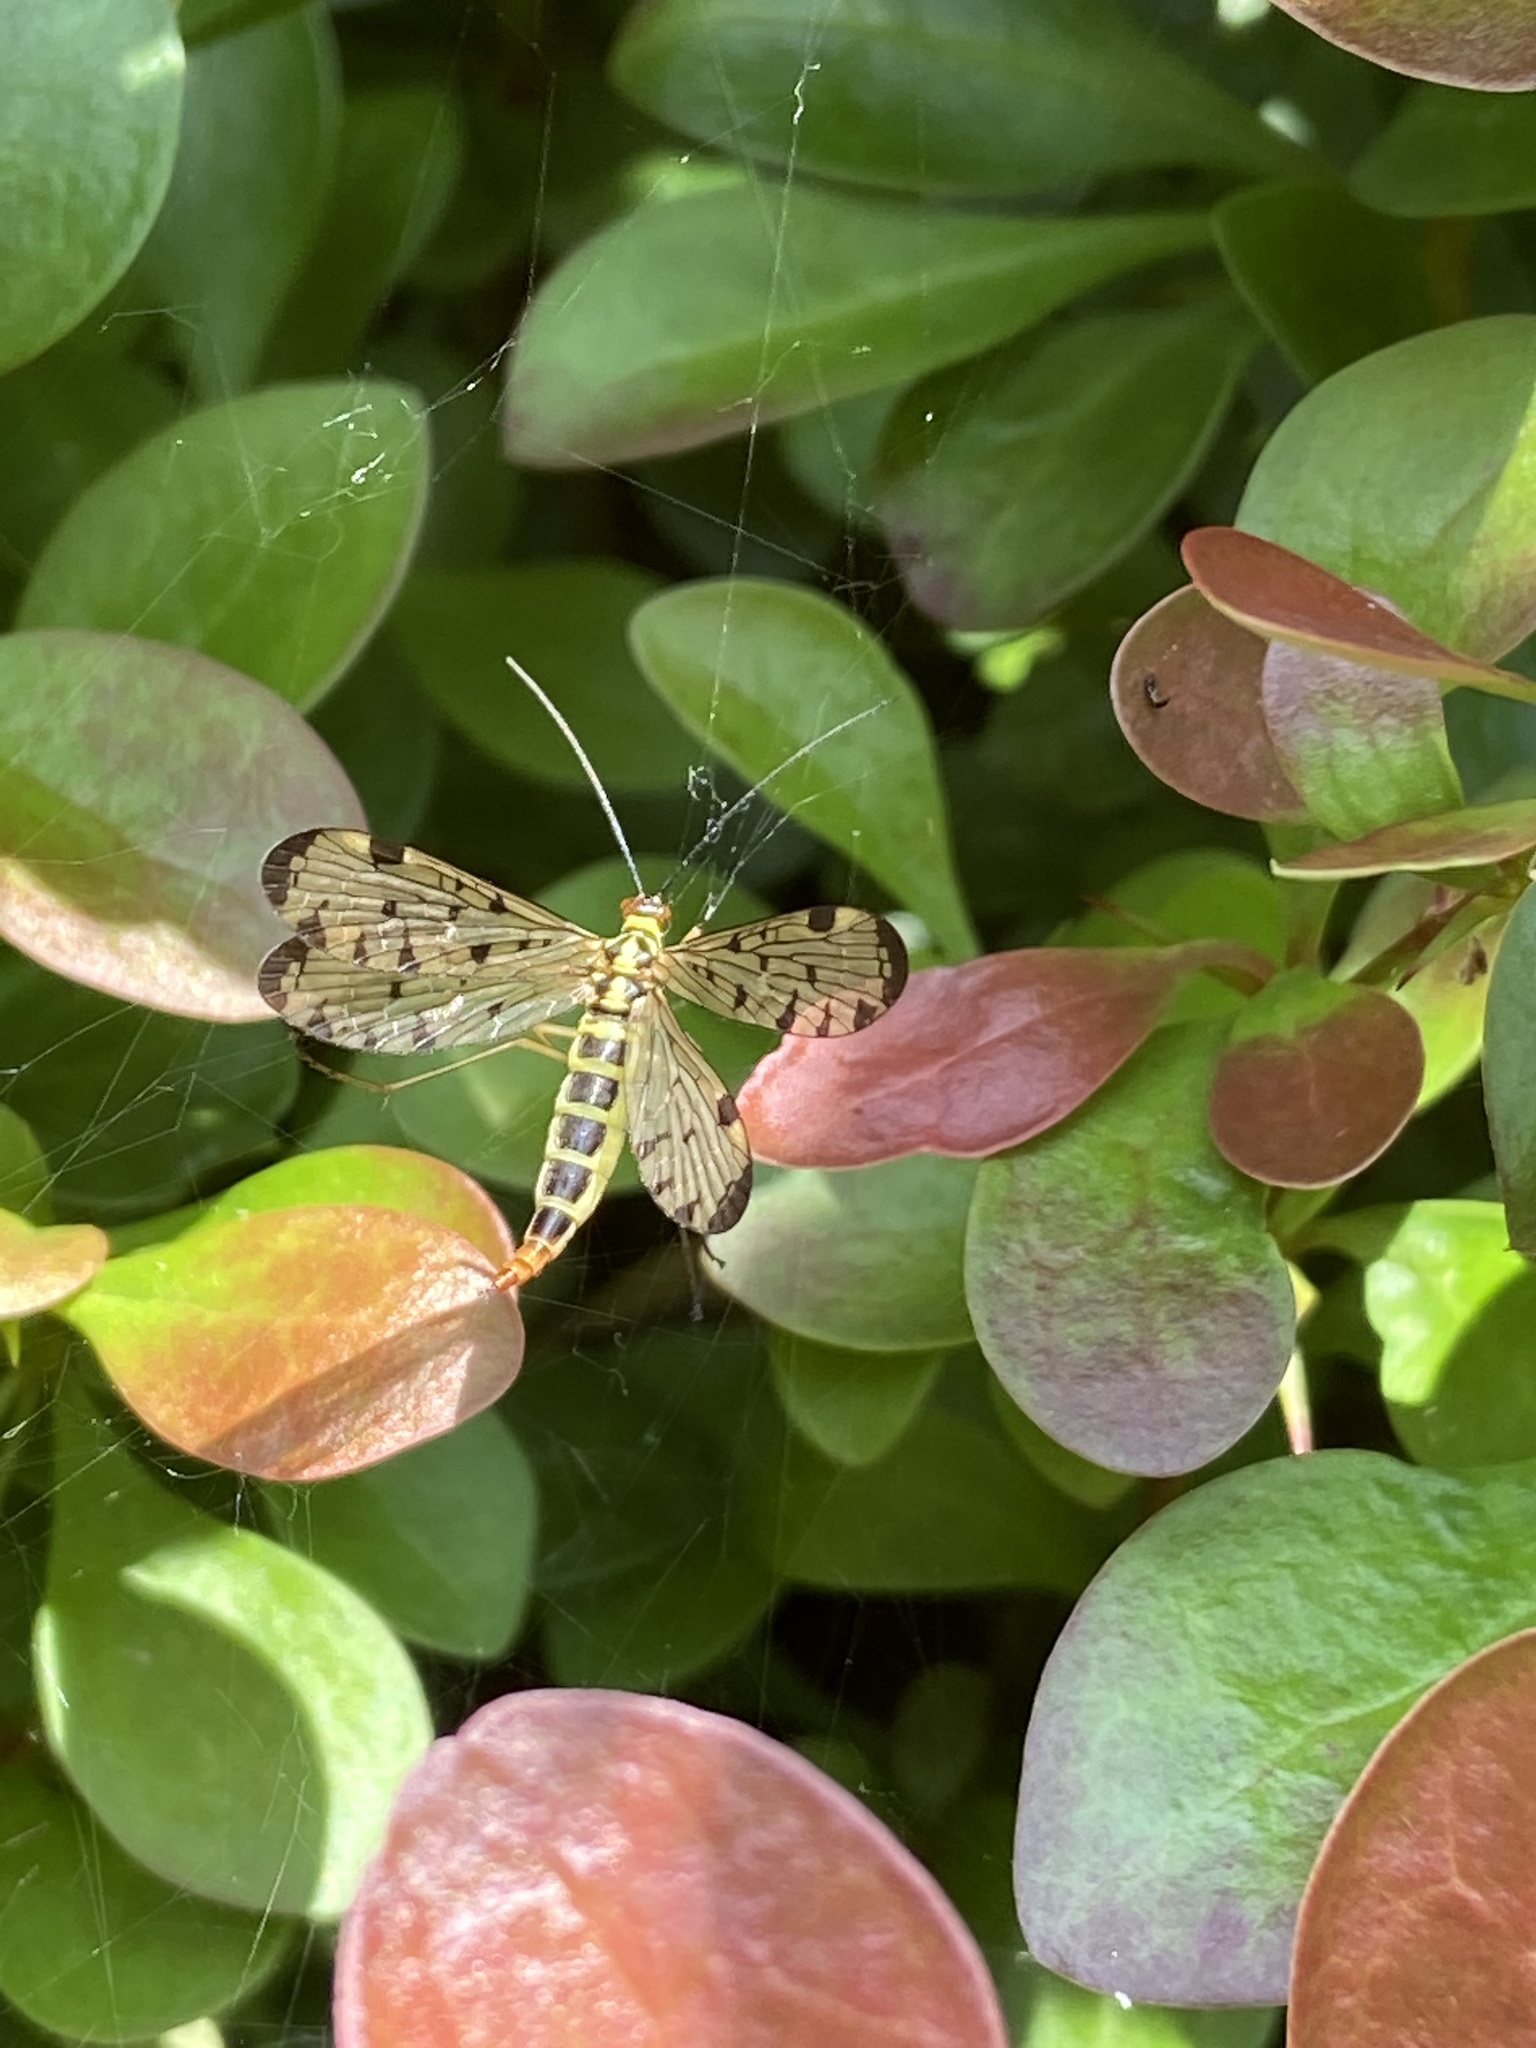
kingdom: Animalia
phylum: Arthropoda
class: Insecta
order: Mecoptera
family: Panorpidae
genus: Panorpa
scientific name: Panorpa germanica
